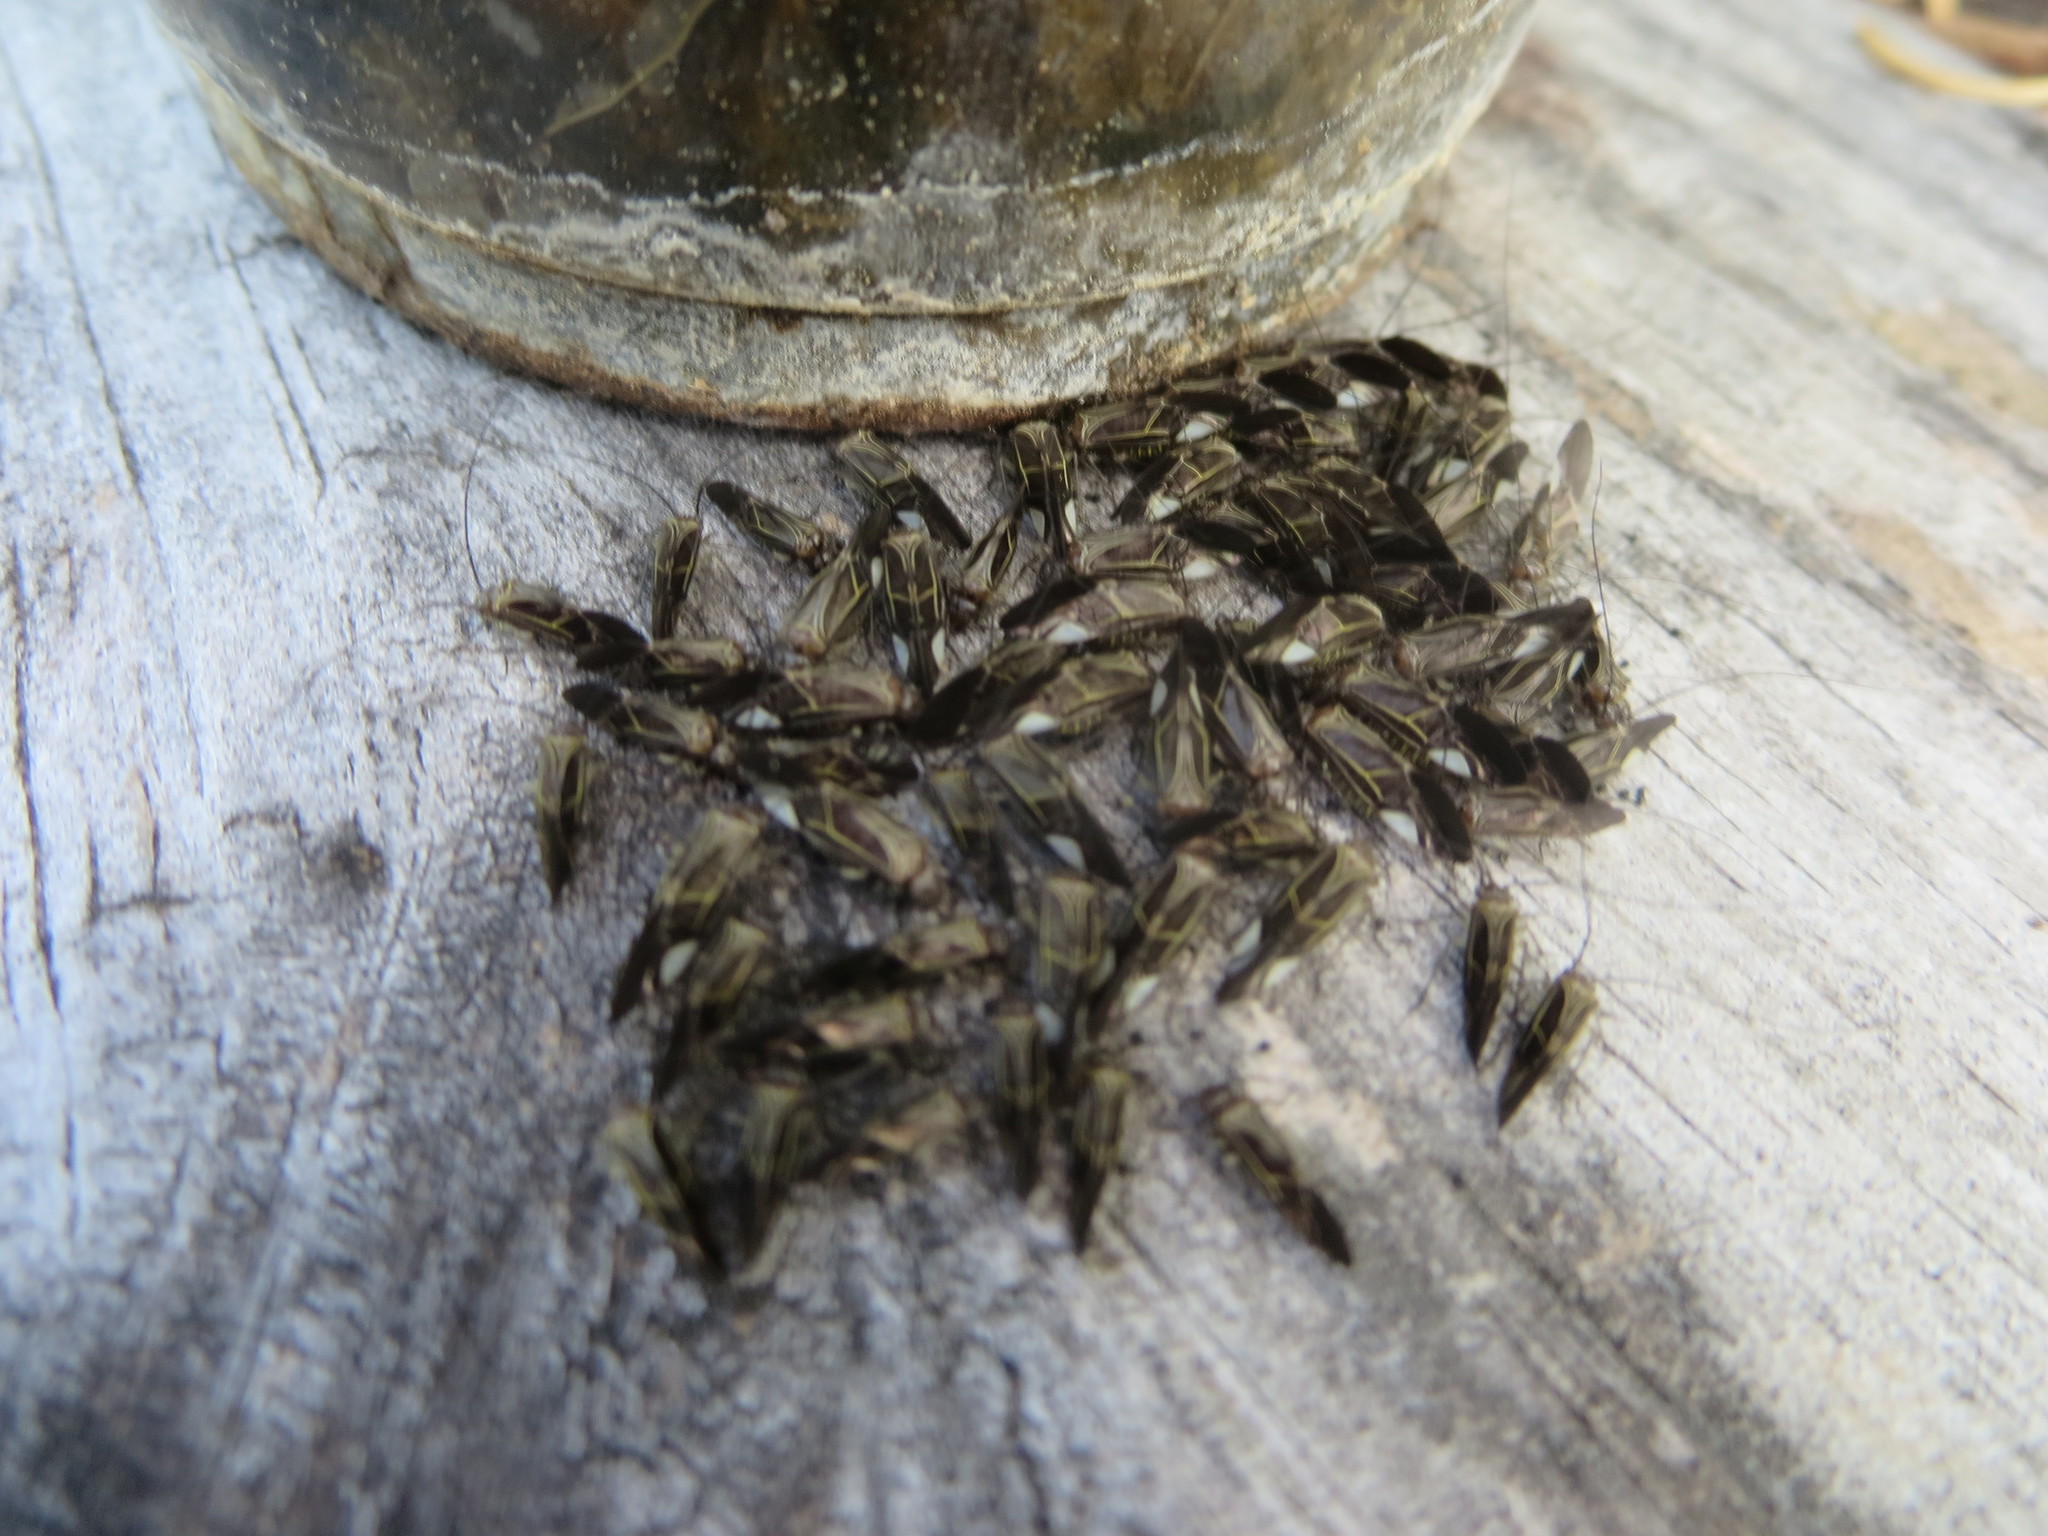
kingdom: Animalia
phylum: Arthropoda
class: Insecta
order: Psocodea
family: Psocidae
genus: Cerastipsocus
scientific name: Cerastipsocus venosus
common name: Tree cattle
